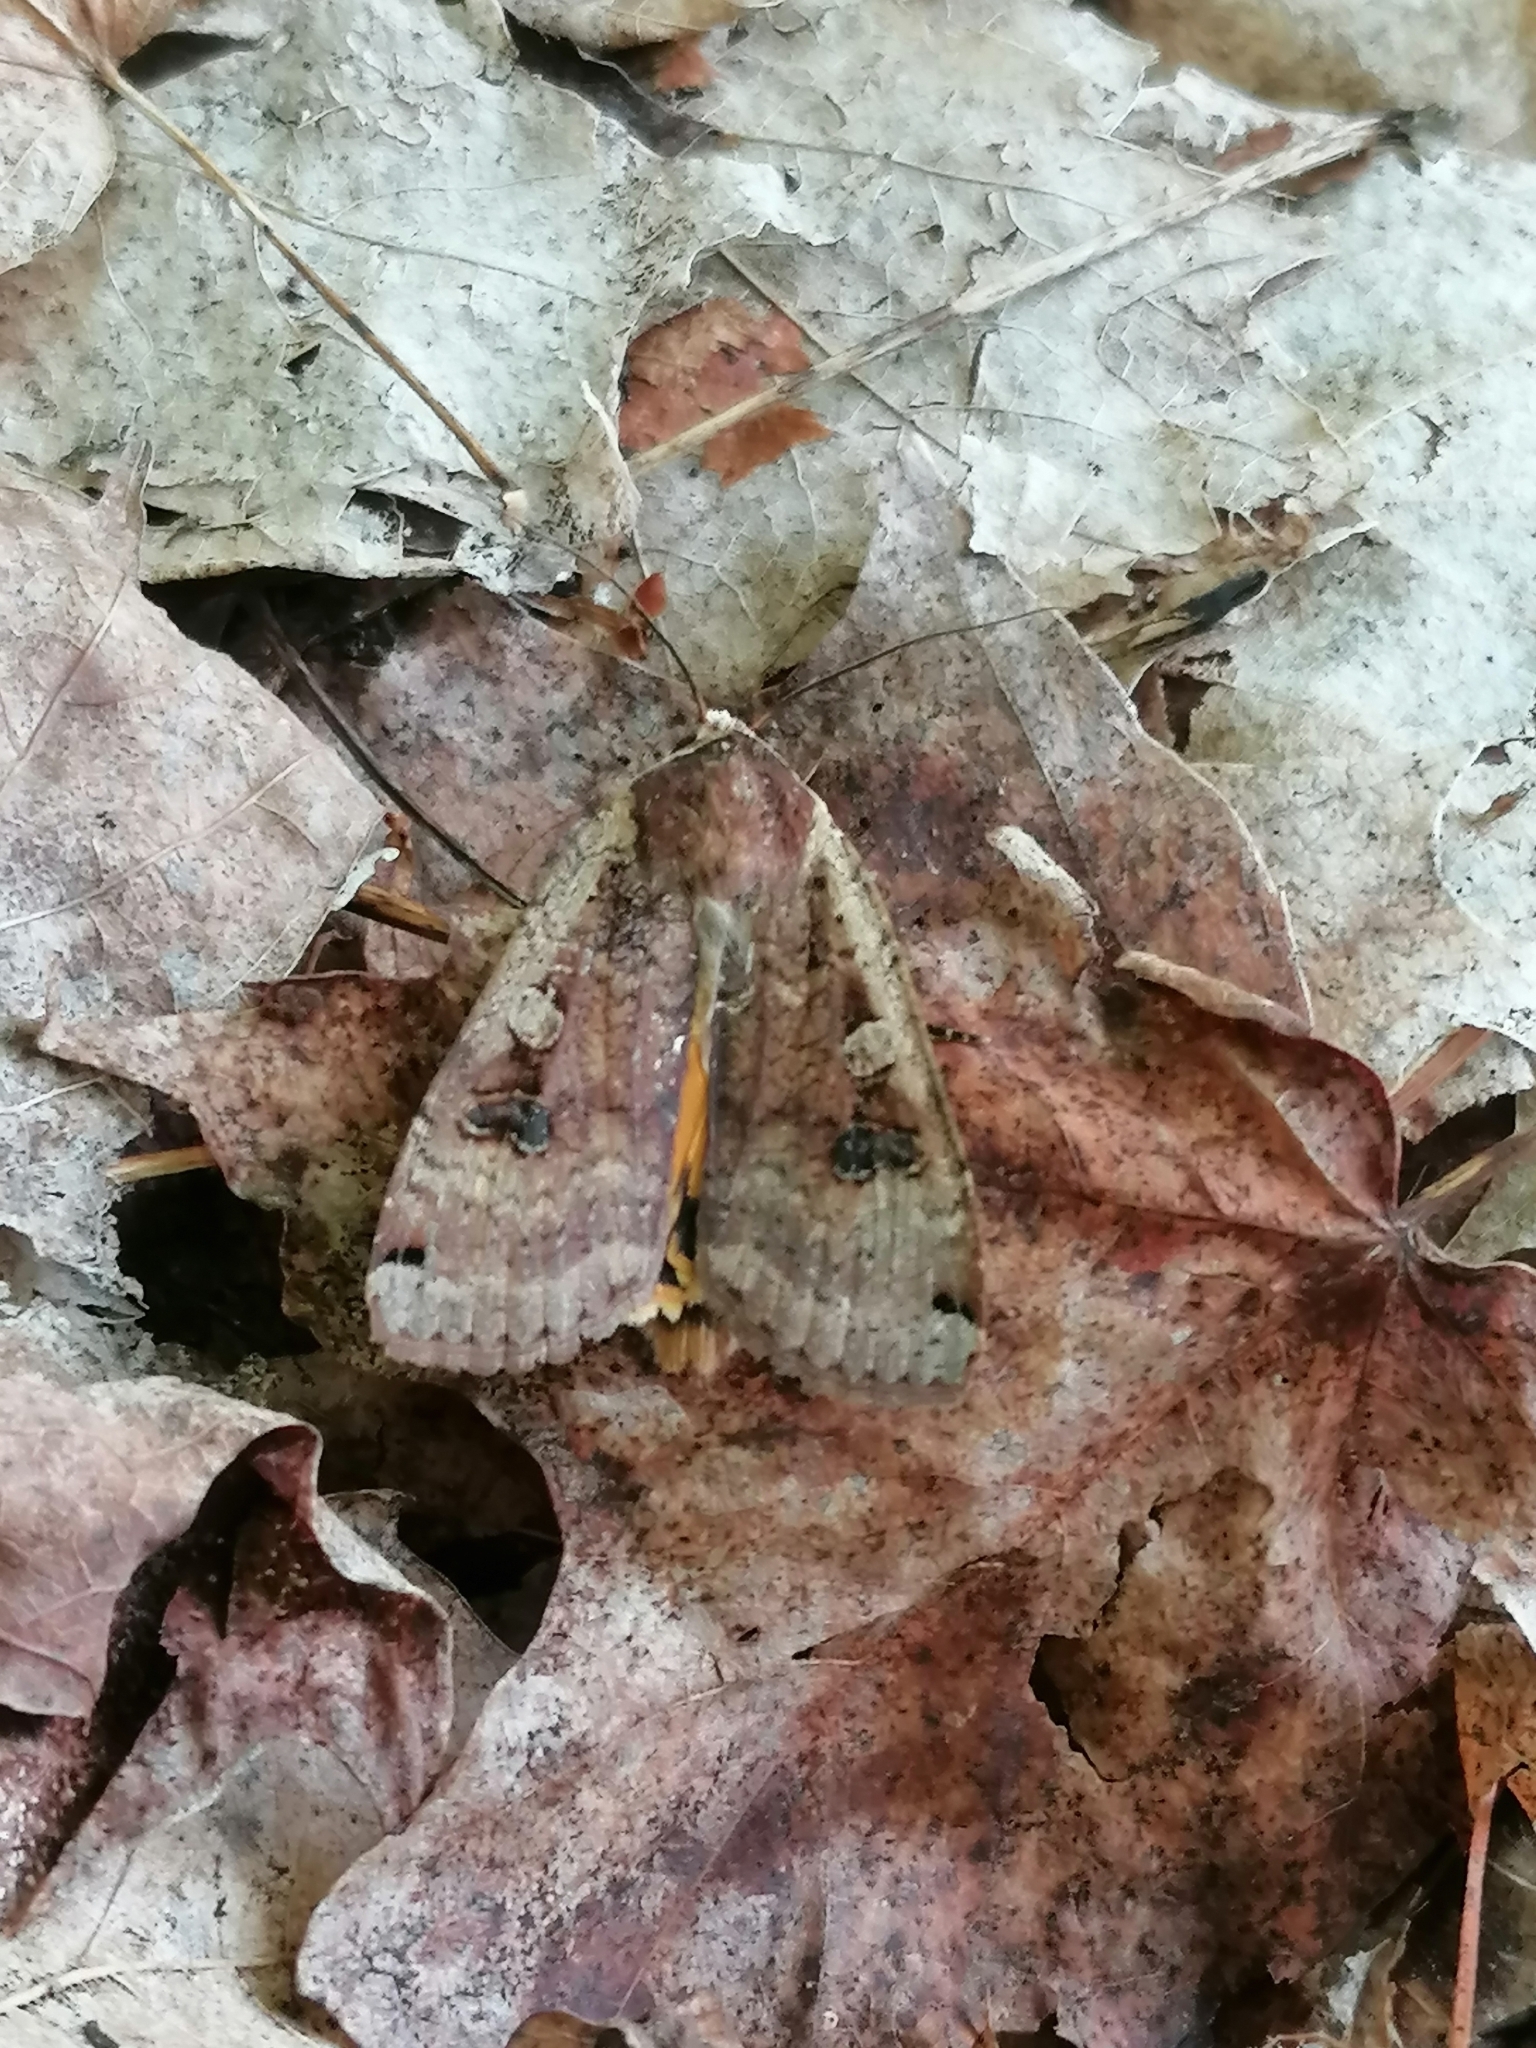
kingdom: Animalia
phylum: Arthropoda
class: Insecta
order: Lepidoptera
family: Noctuidae
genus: Noctua
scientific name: Noctua pronuba
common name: Large yellow underwing
